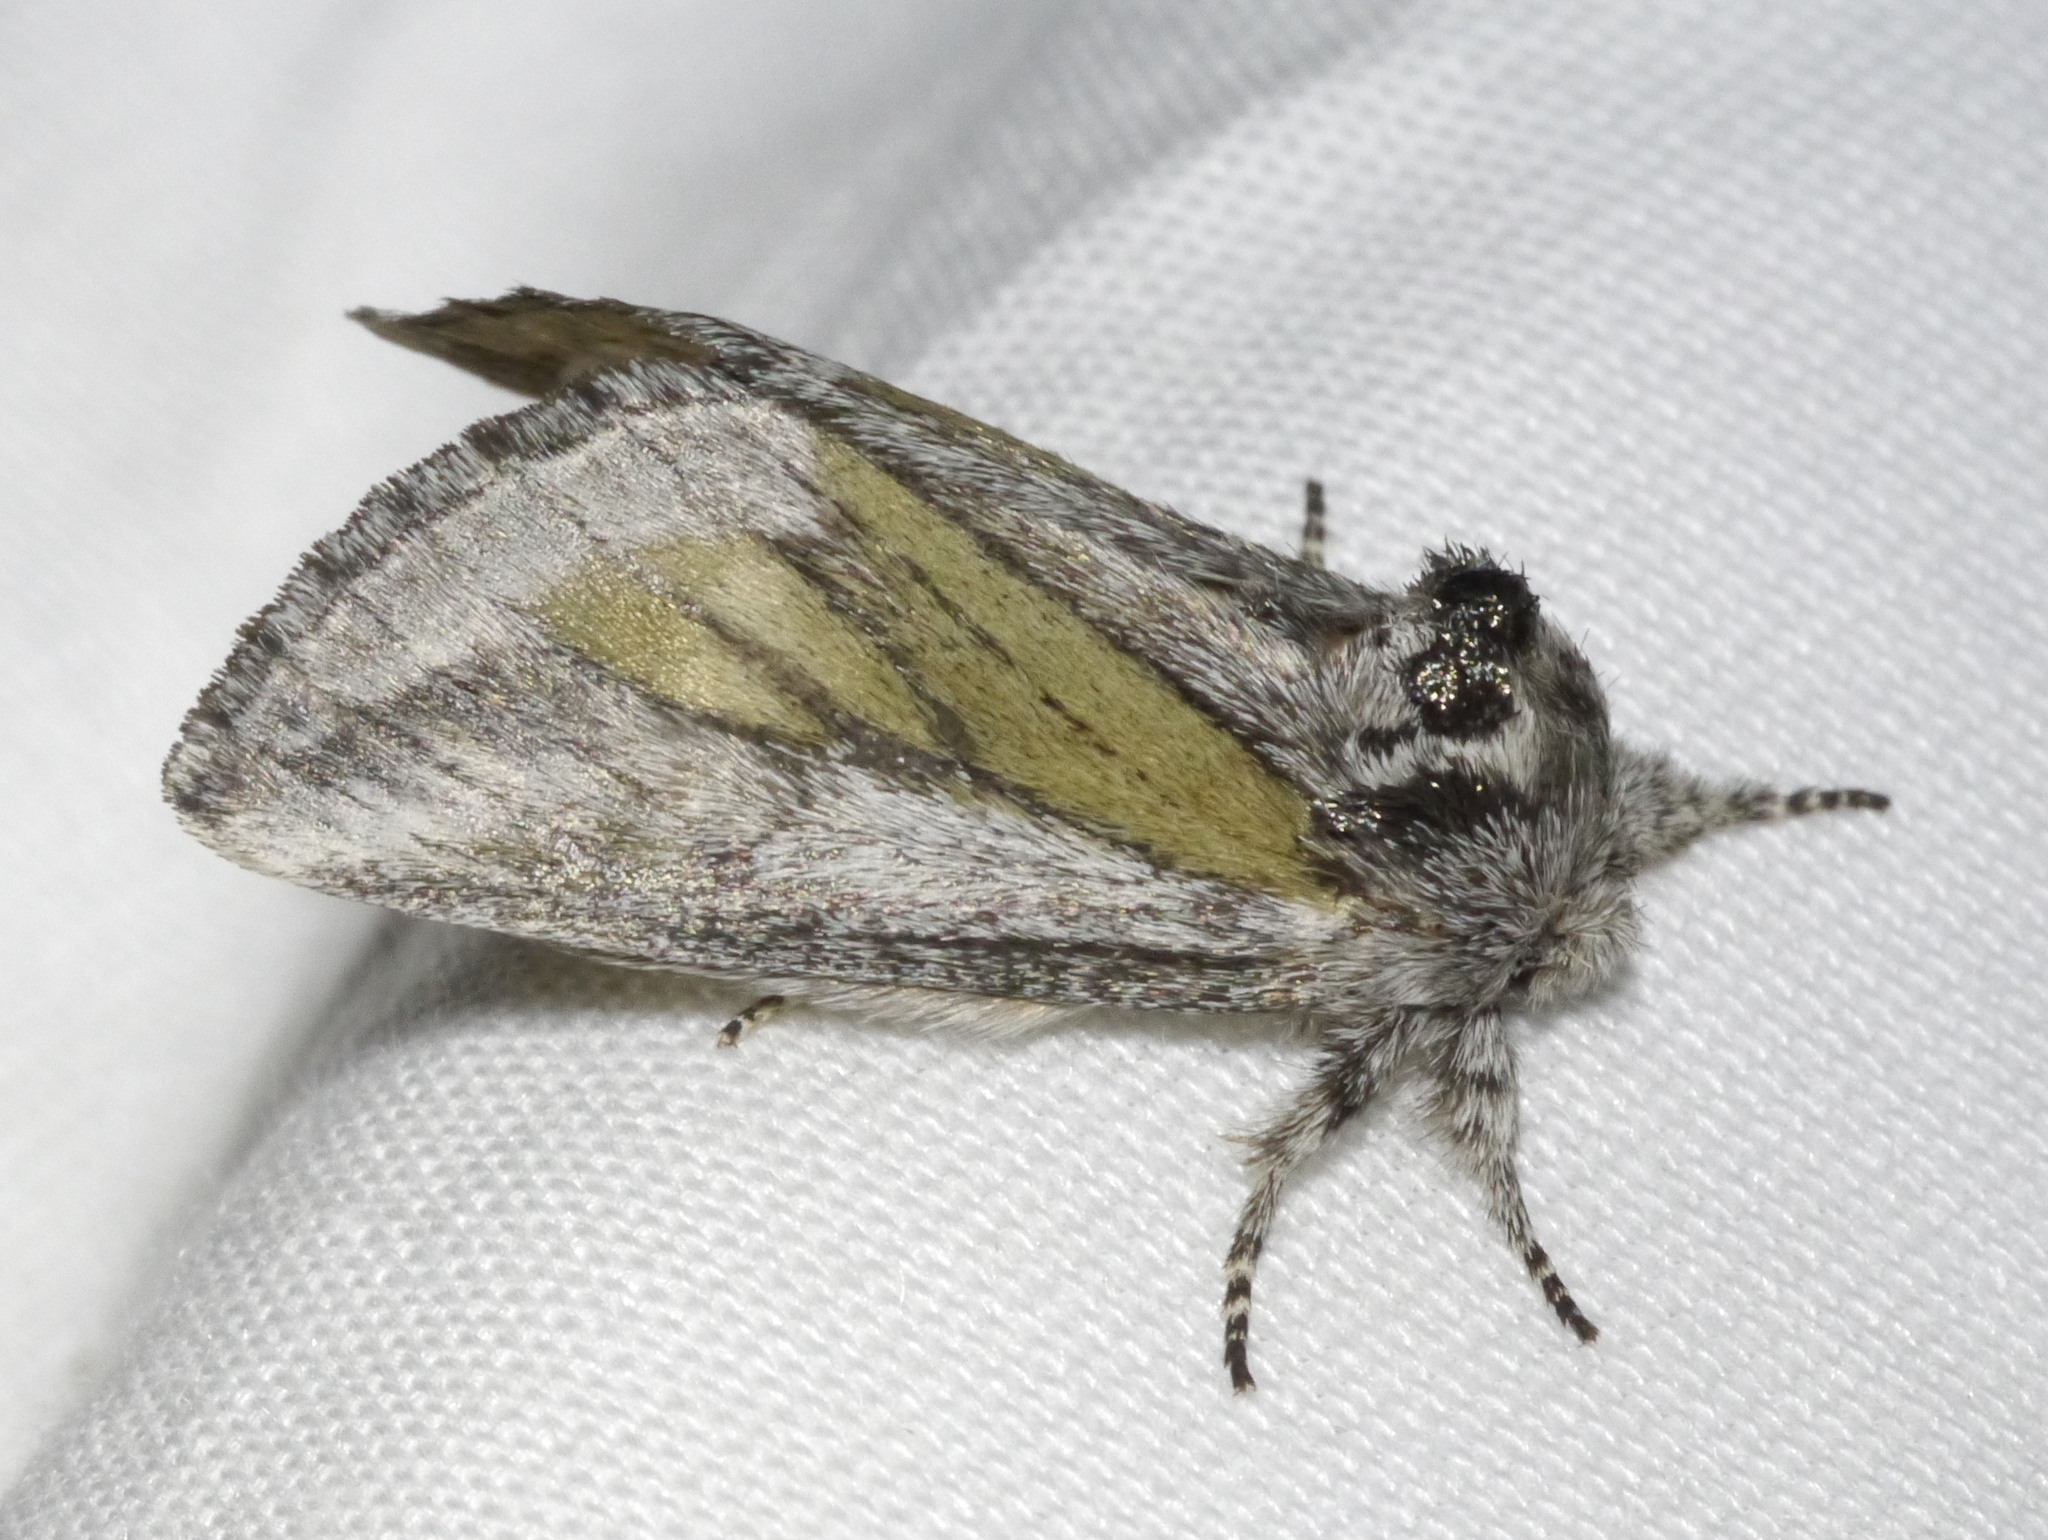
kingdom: Animalia
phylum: Arthropoda
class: Insecta
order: Lepidoptera
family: Notodontidae
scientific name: Notodontidae
